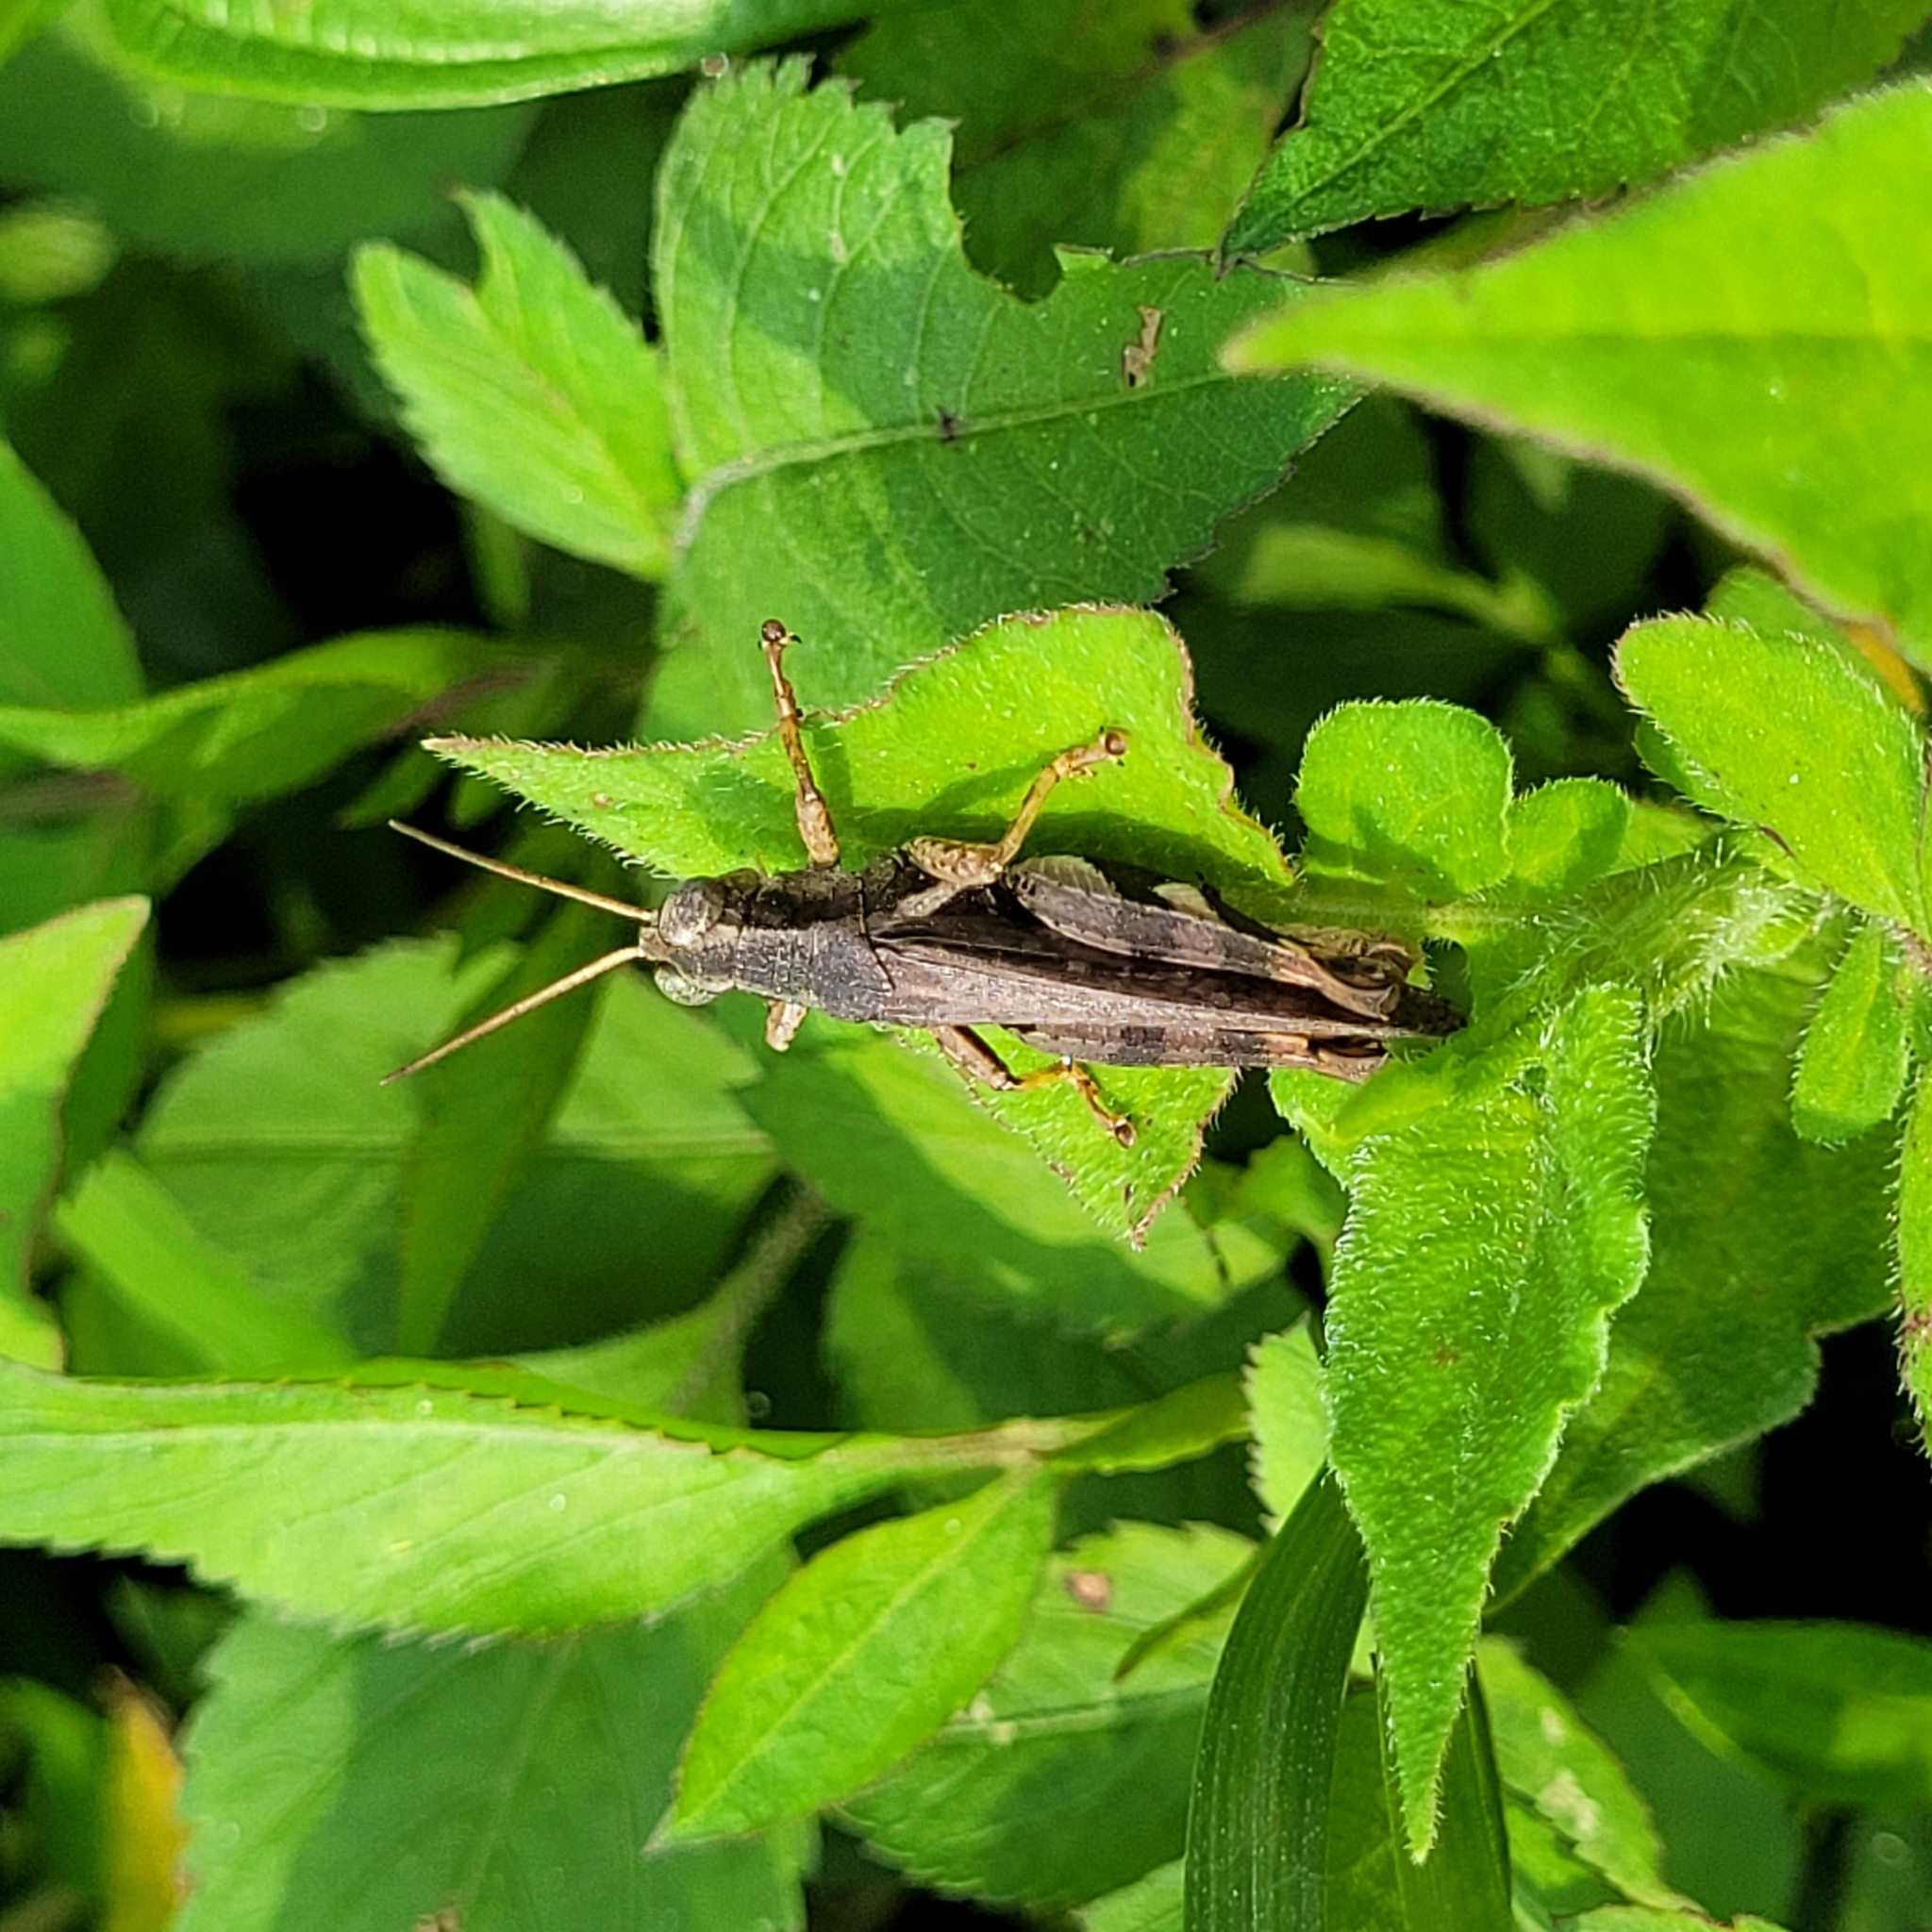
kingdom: Animalia
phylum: Arthropoda
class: Insecta
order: Orthoptera
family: Acrididae
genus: Xenocatantops
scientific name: Xenocatantops brachycerus
